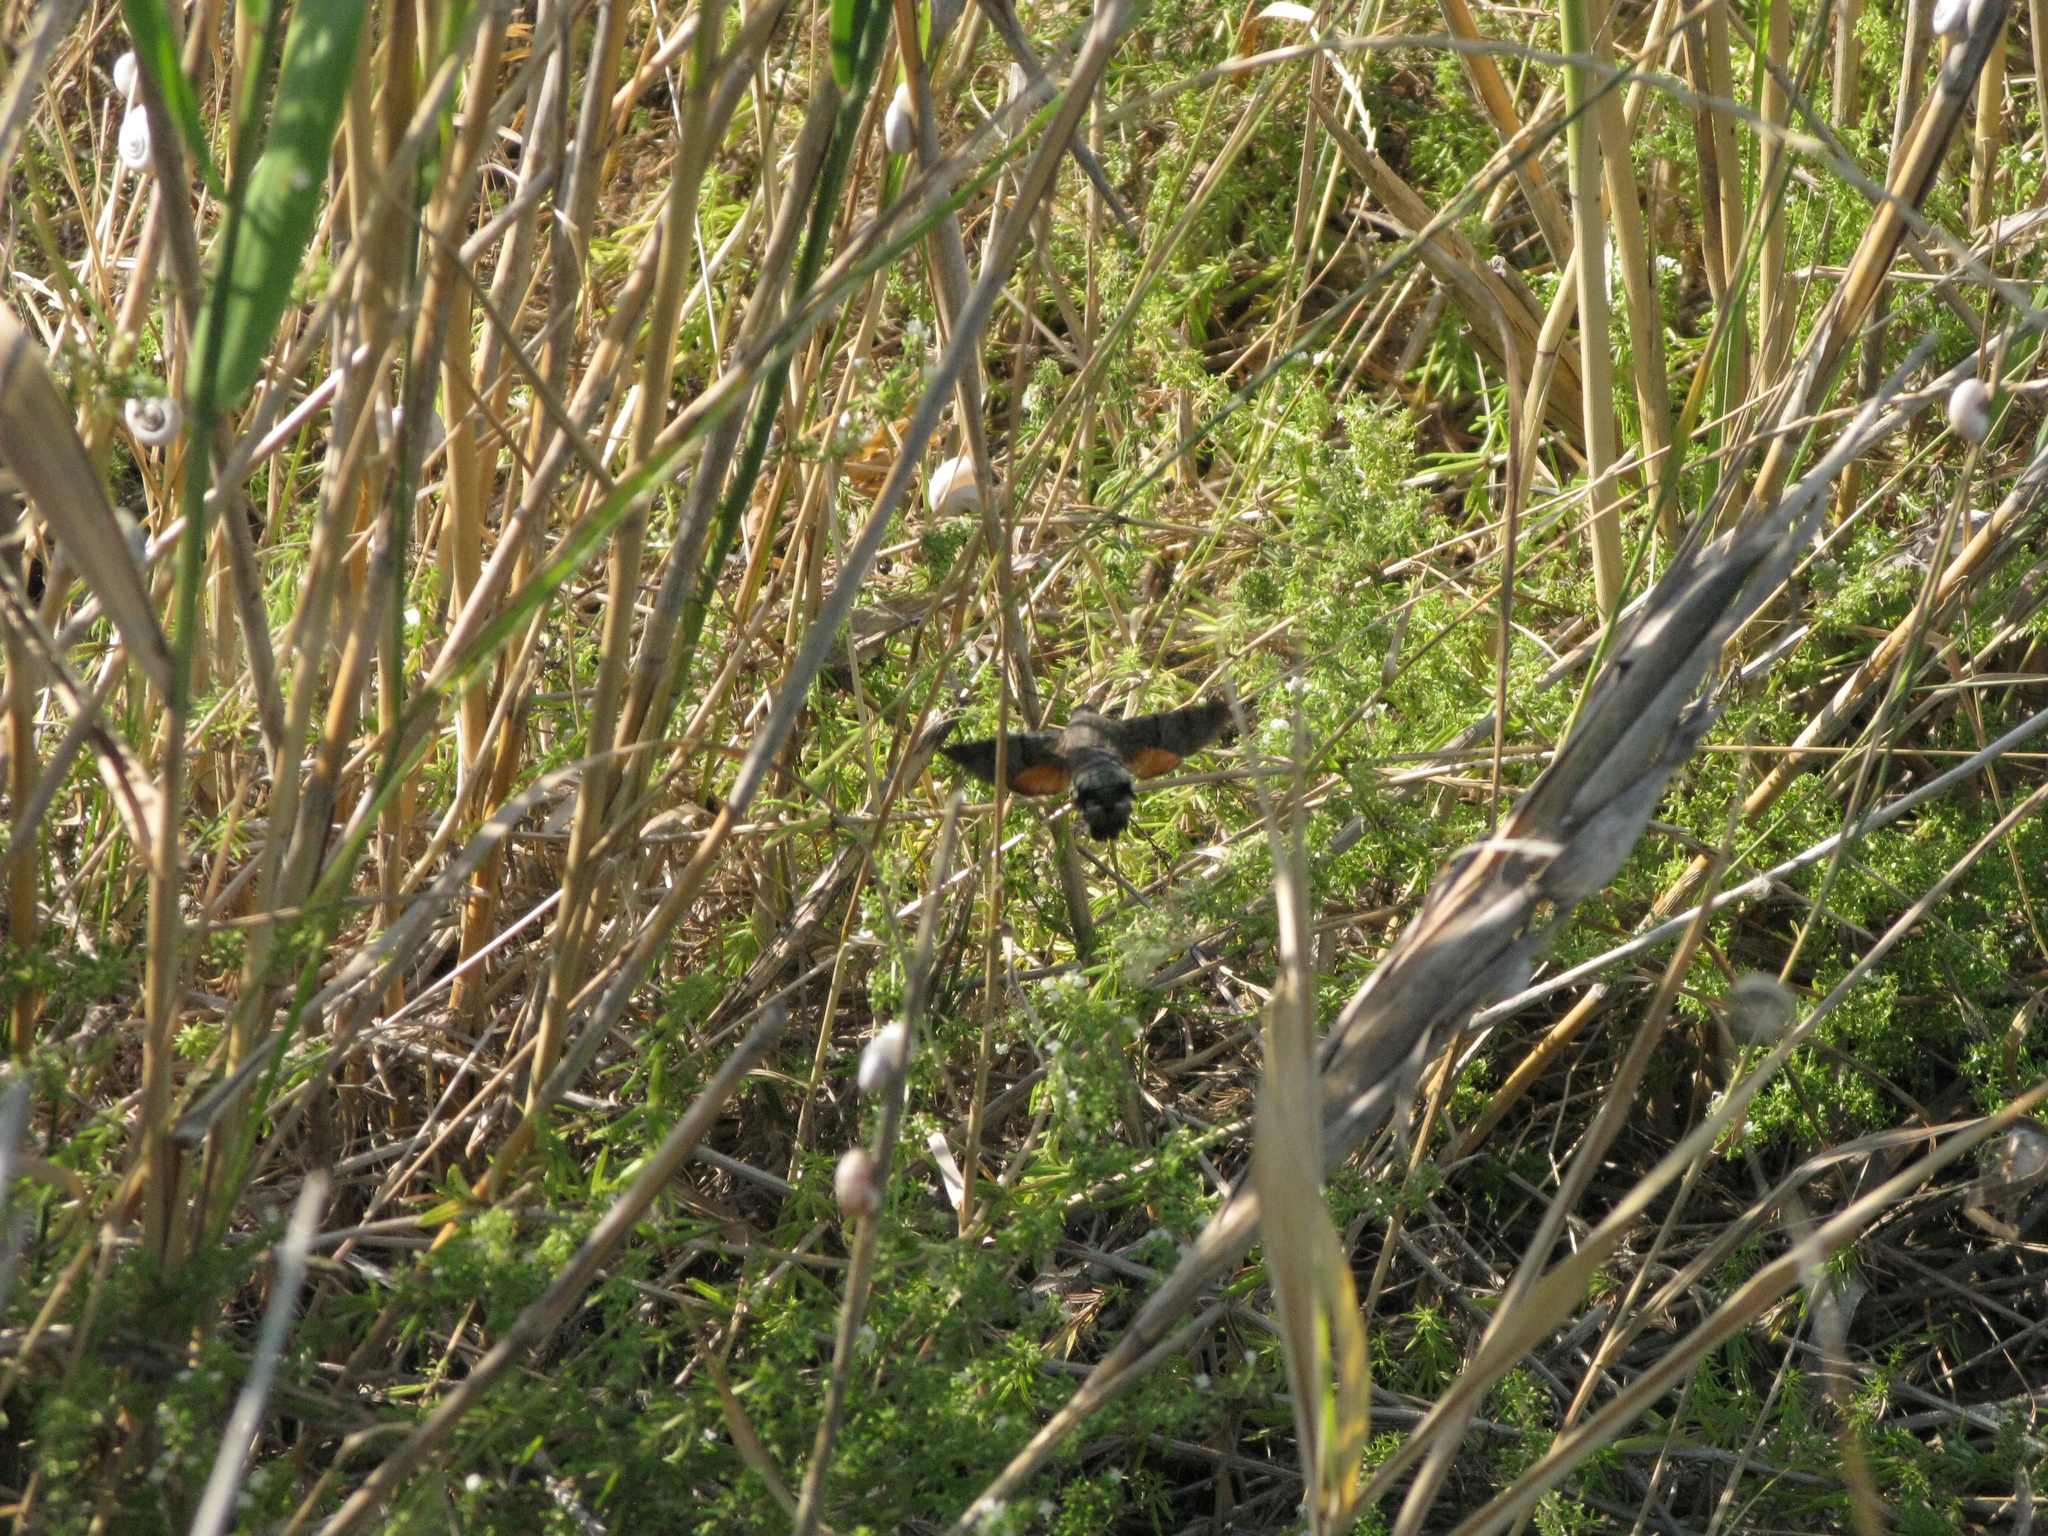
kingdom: Animalia
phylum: Arthropoda
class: Insecta
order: Lepidoptera
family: Sphingidae
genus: Macroglossum
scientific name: Macroglossum stellatarum
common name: Humming-bird hawk-moth
